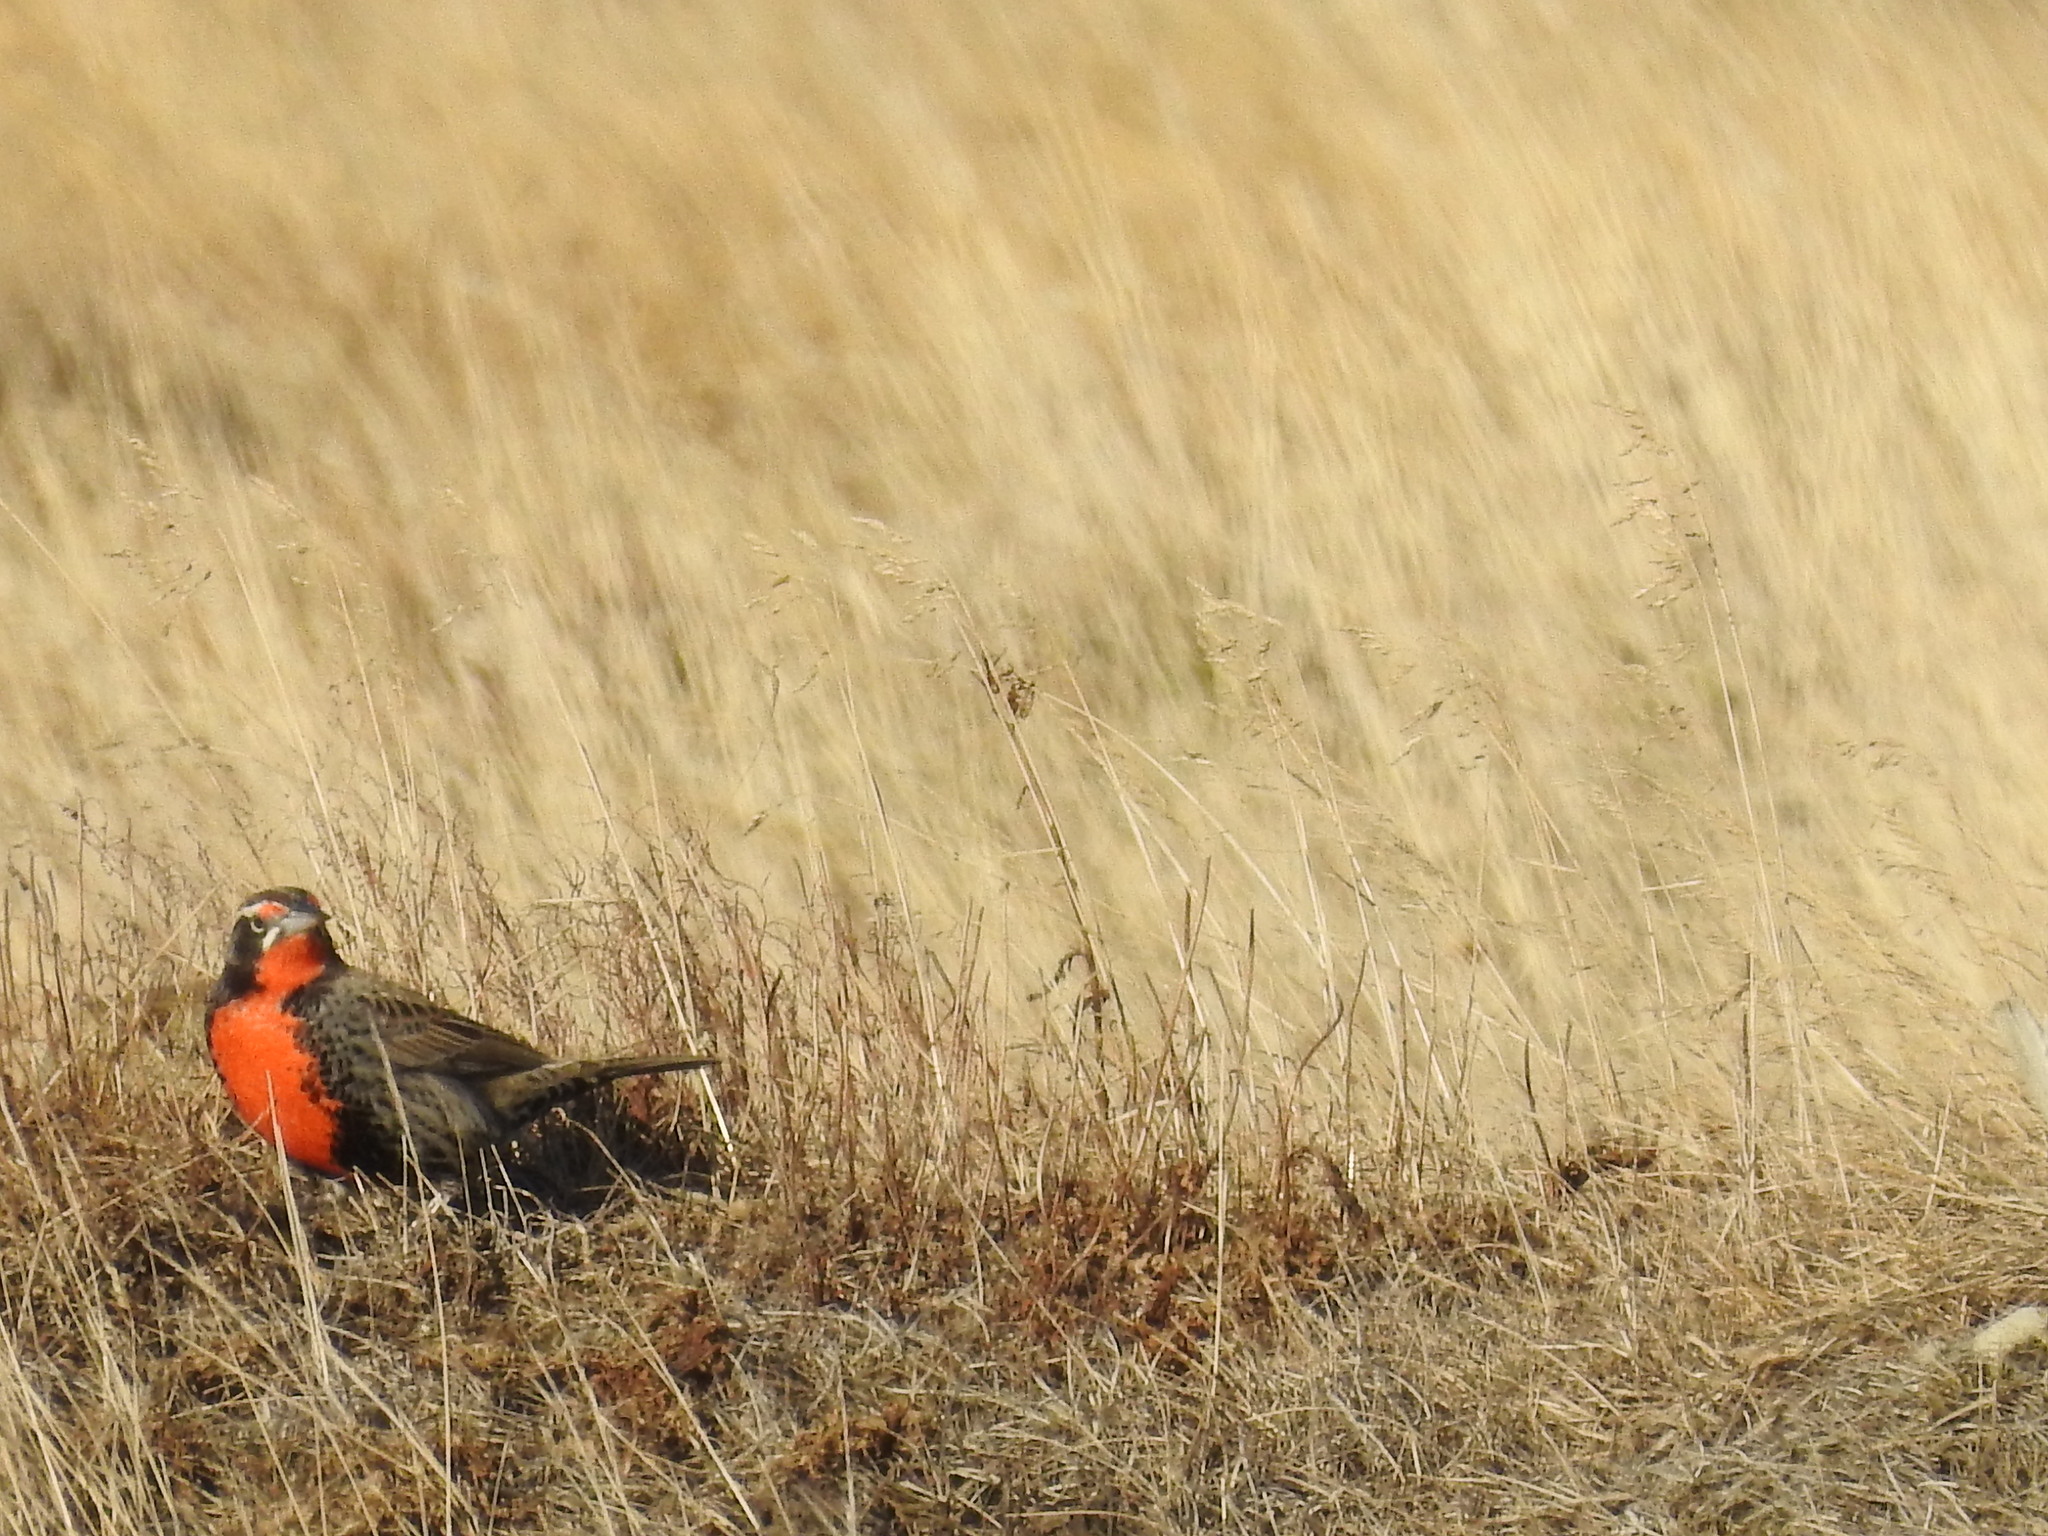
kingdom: Animalia
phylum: Chordata
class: Aves
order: Passeriformes
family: Icteridae
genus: Sturnella
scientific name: Sturnella loyca
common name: Long-tailed meadowlark
